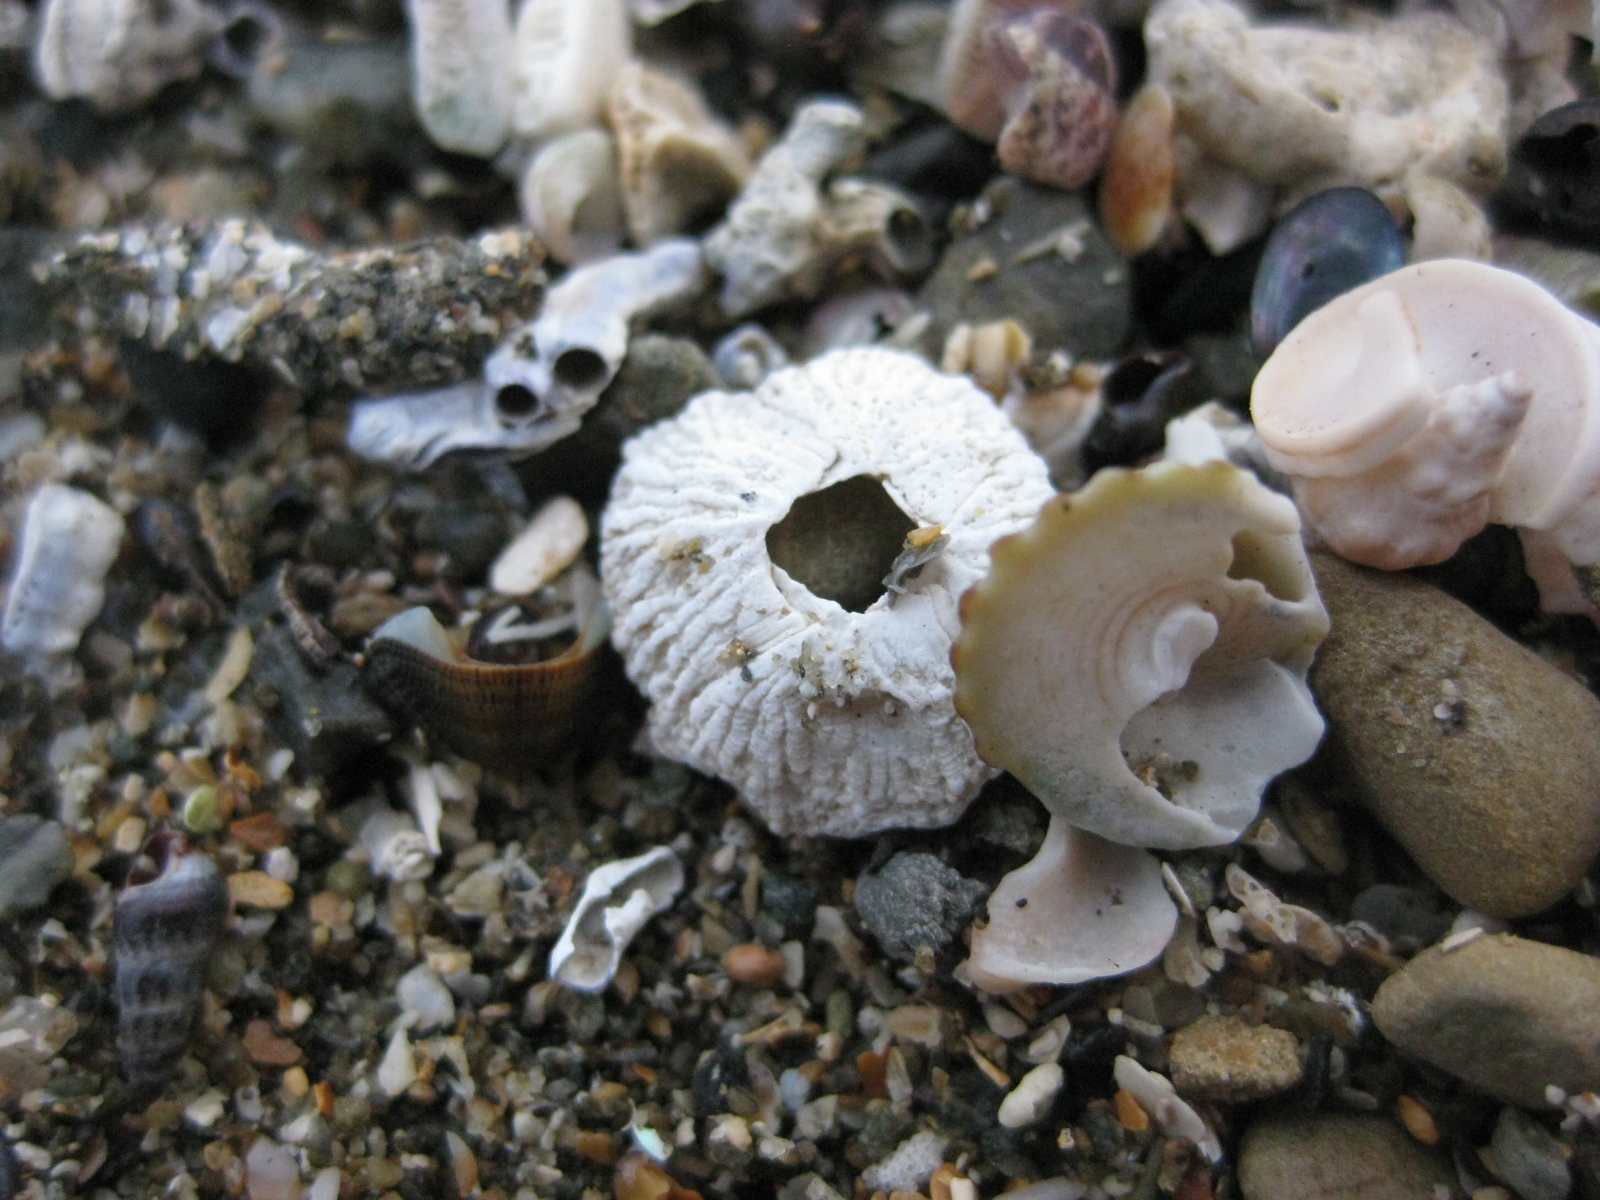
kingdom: Animalia
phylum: Arthropoda
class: Maxillopoda
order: Sessilia
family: Tetraclitidae
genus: Tetraclitella
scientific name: Tetraclitella depressa
